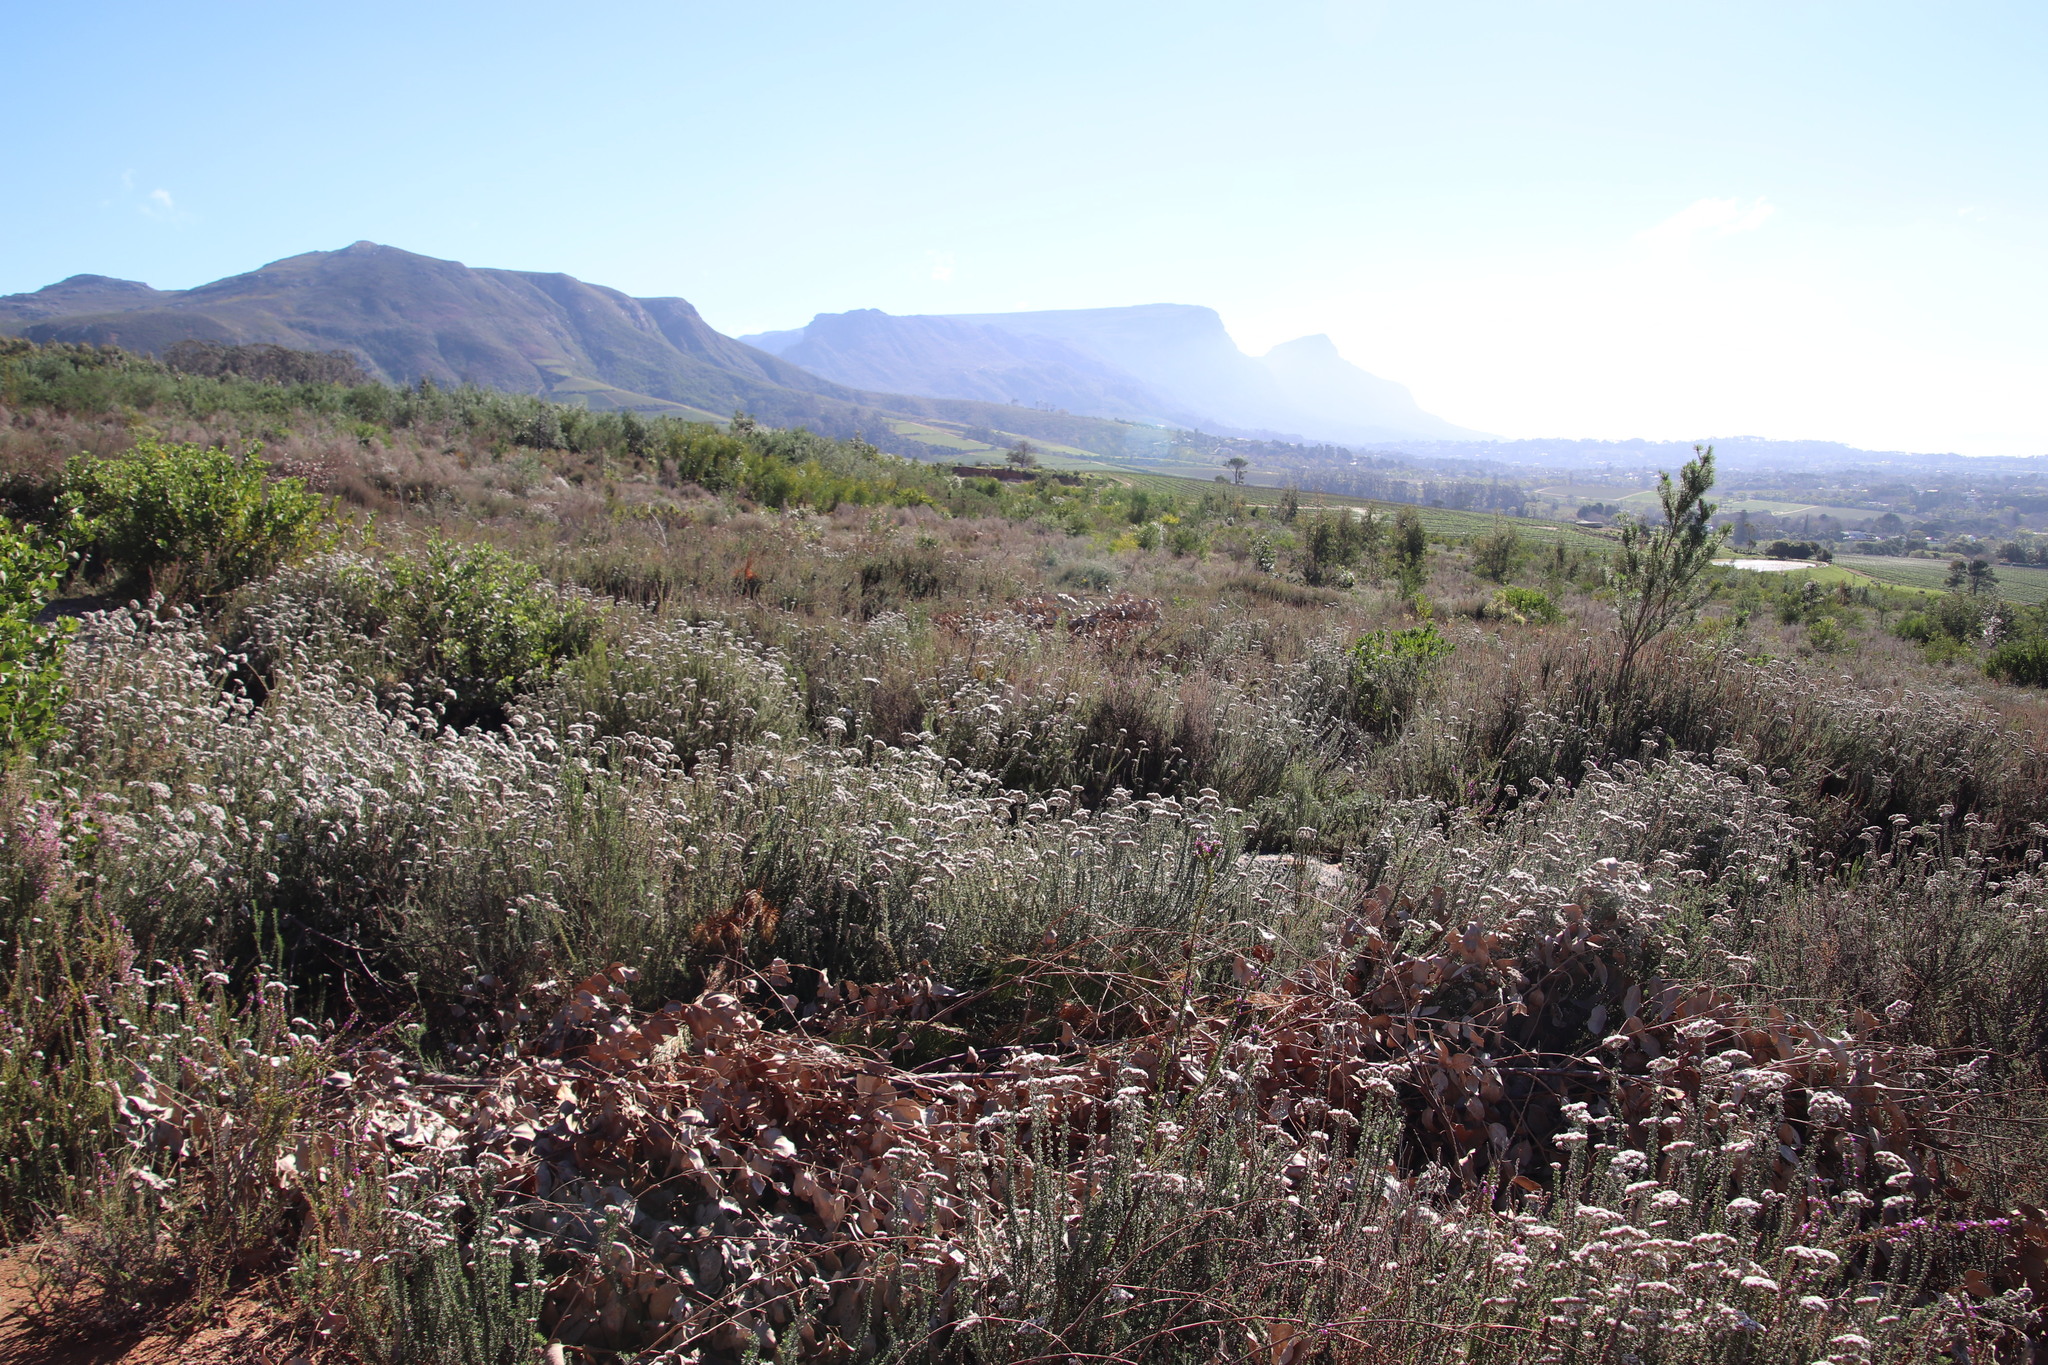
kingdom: Plantae
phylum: Tracheophyta
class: Magnoliopsida
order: Asterales
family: Asteraceae
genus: Metalasia
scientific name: Metalasia densa
